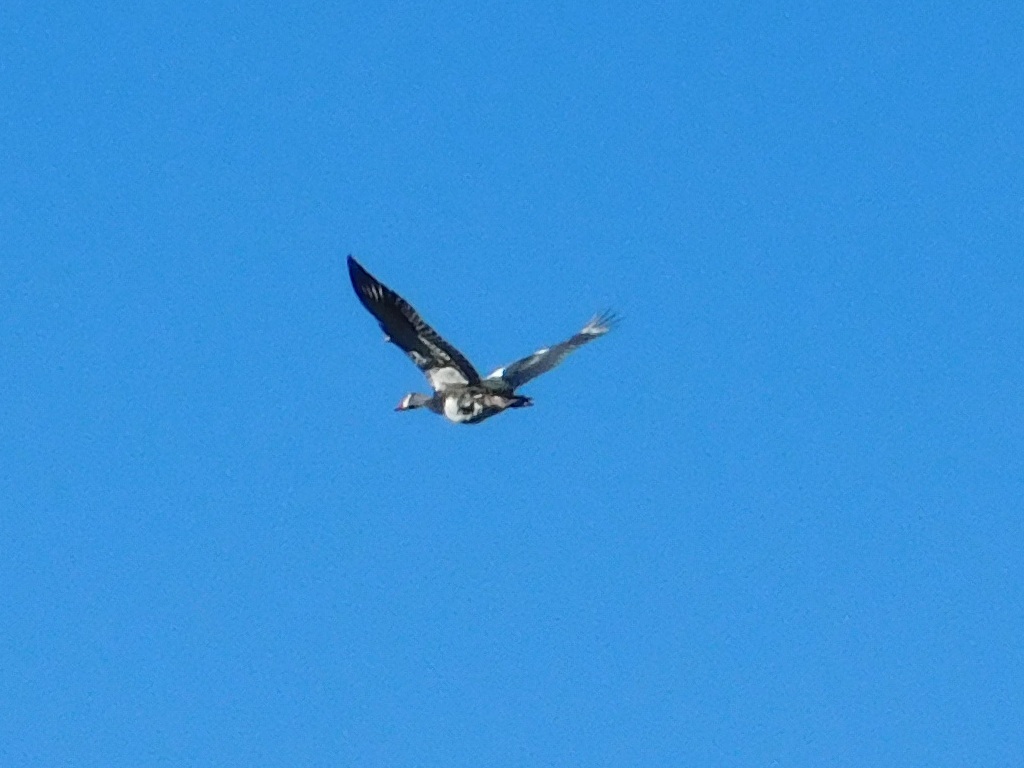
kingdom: Animalia
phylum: Chordata
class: Aves
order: Anseriformes
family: Anatidae
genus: Plectropterus
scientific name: Plectropterus gambensis
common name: Spur-winged goose
